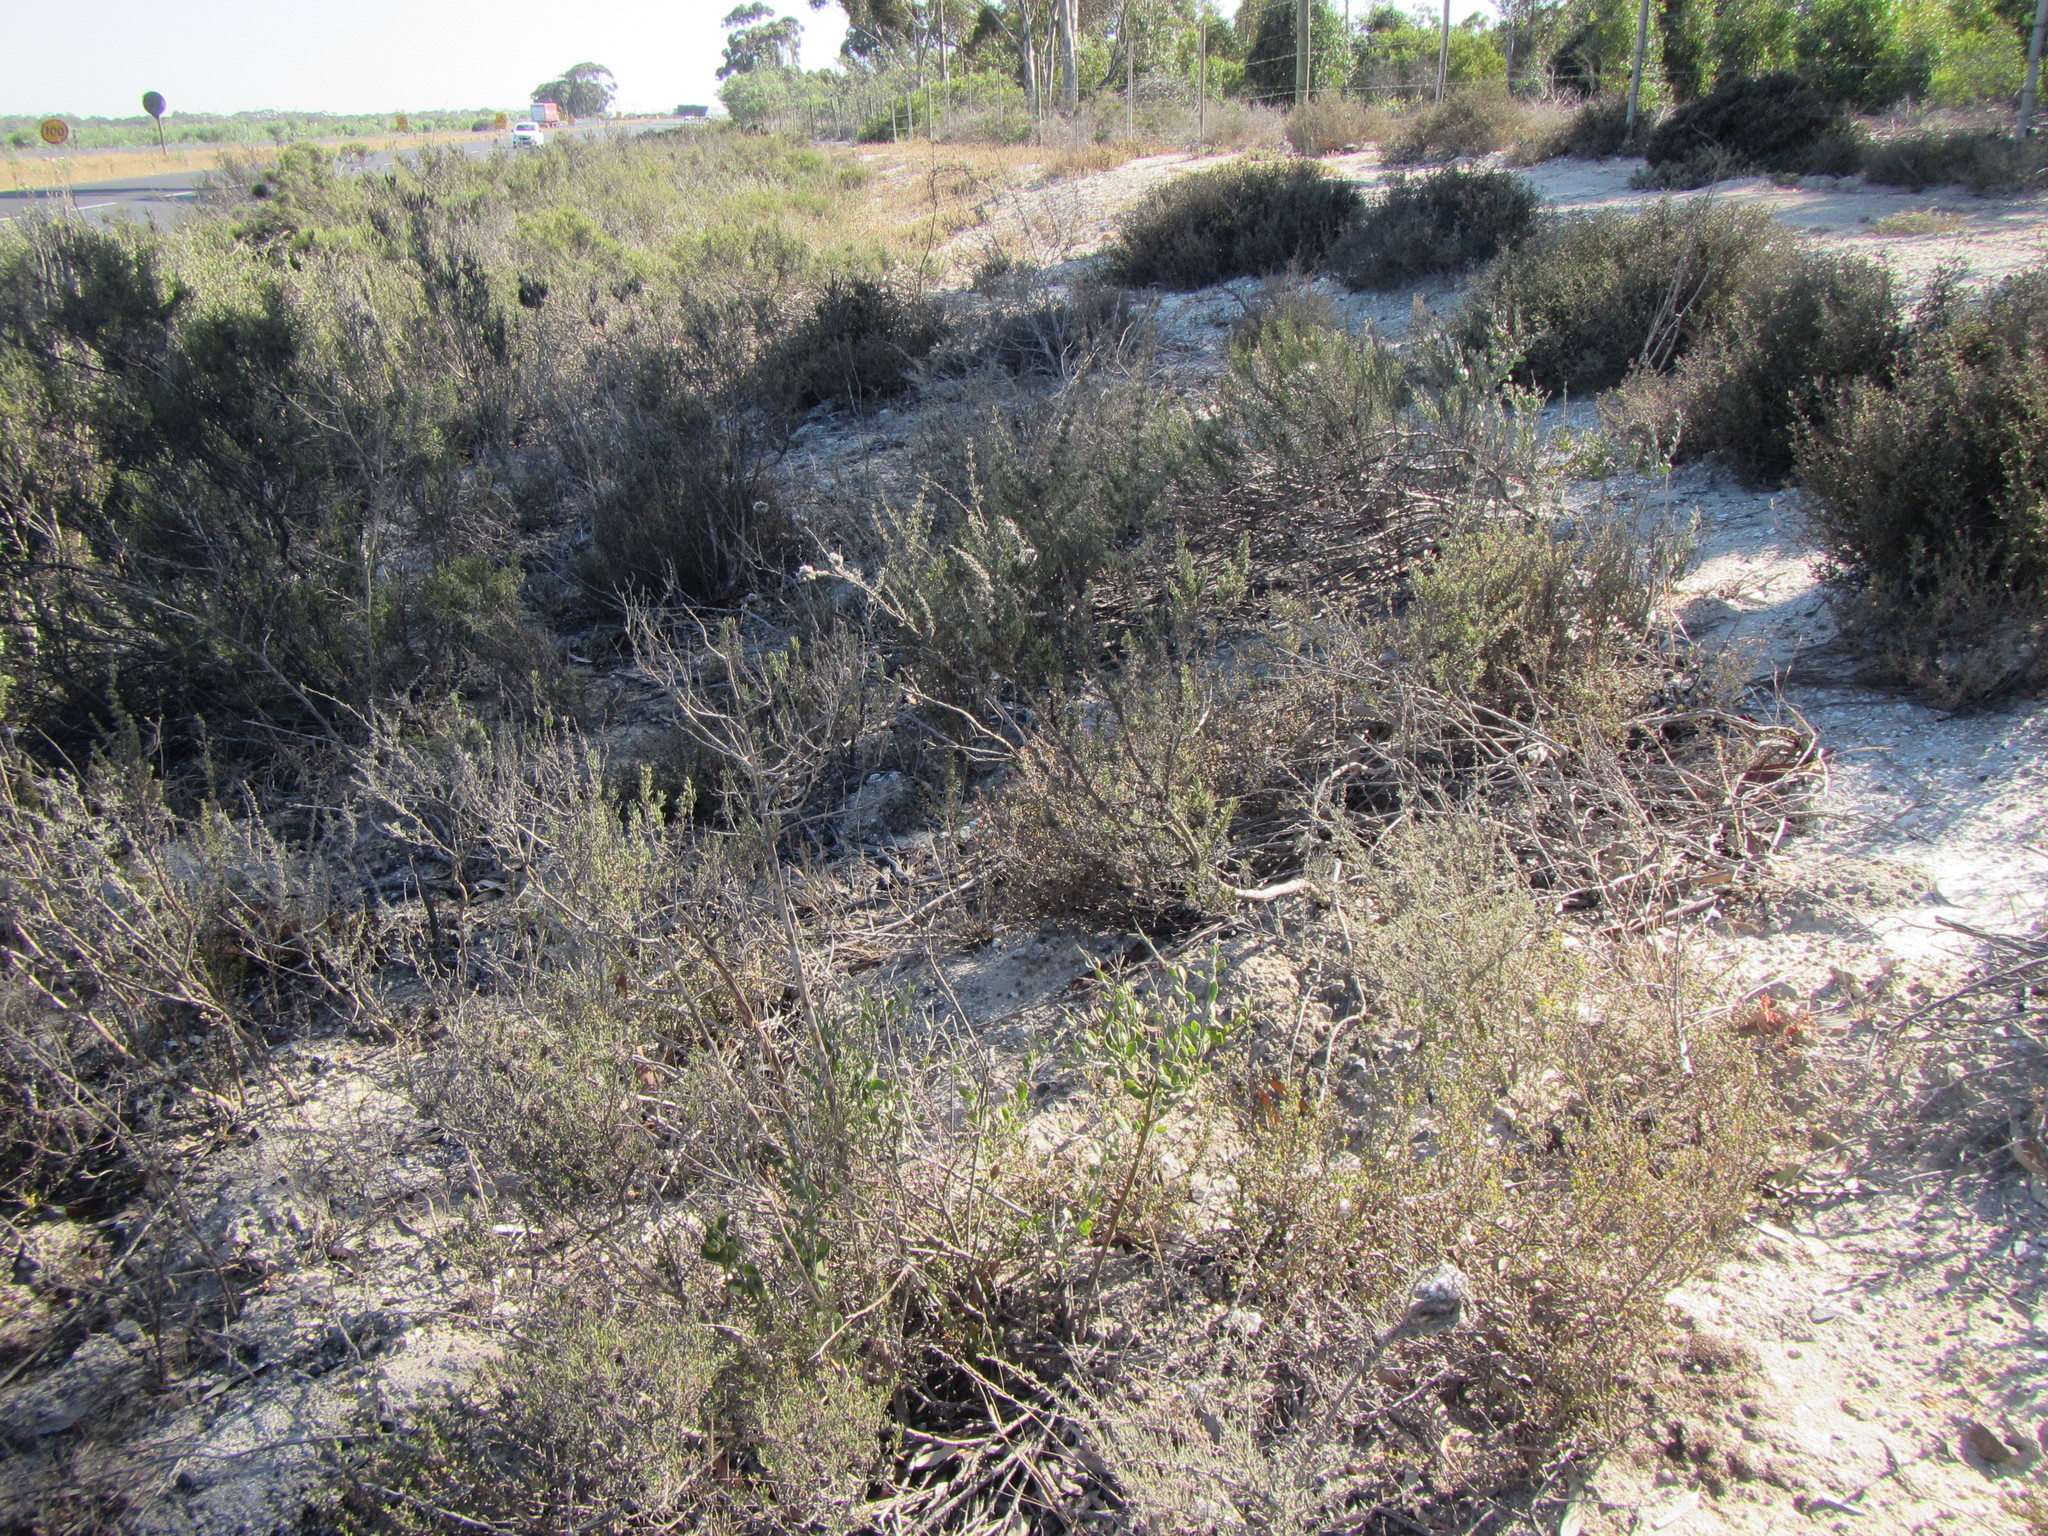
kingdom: Plantae
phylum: Tracheophyta
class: Magnoliopsida
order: Asterales
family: Asteraceae
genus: Marasmodes
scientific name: Marasmodes fasciculata
